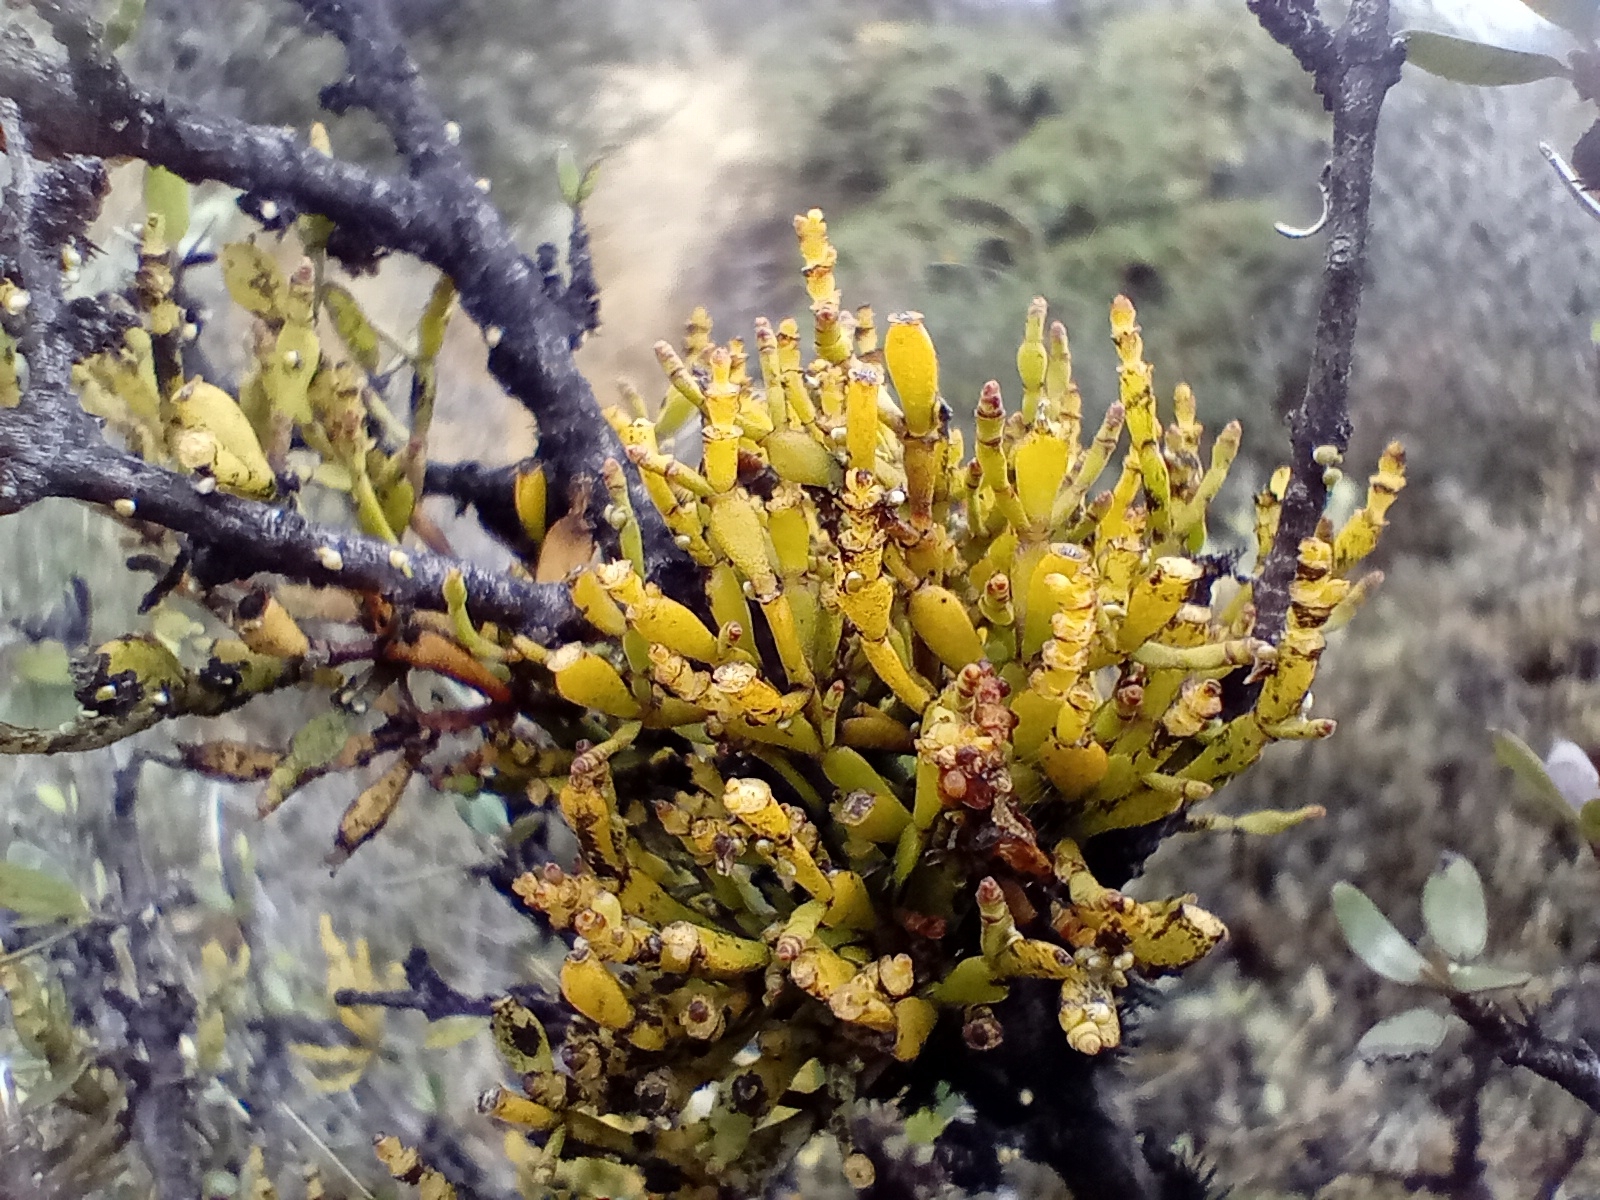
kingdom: Plantae
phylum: Tracheophyta
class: Magnoliopsida
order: Santalales
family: Viscaceae
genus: Korthalsella
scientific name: Korthalsella clavata
